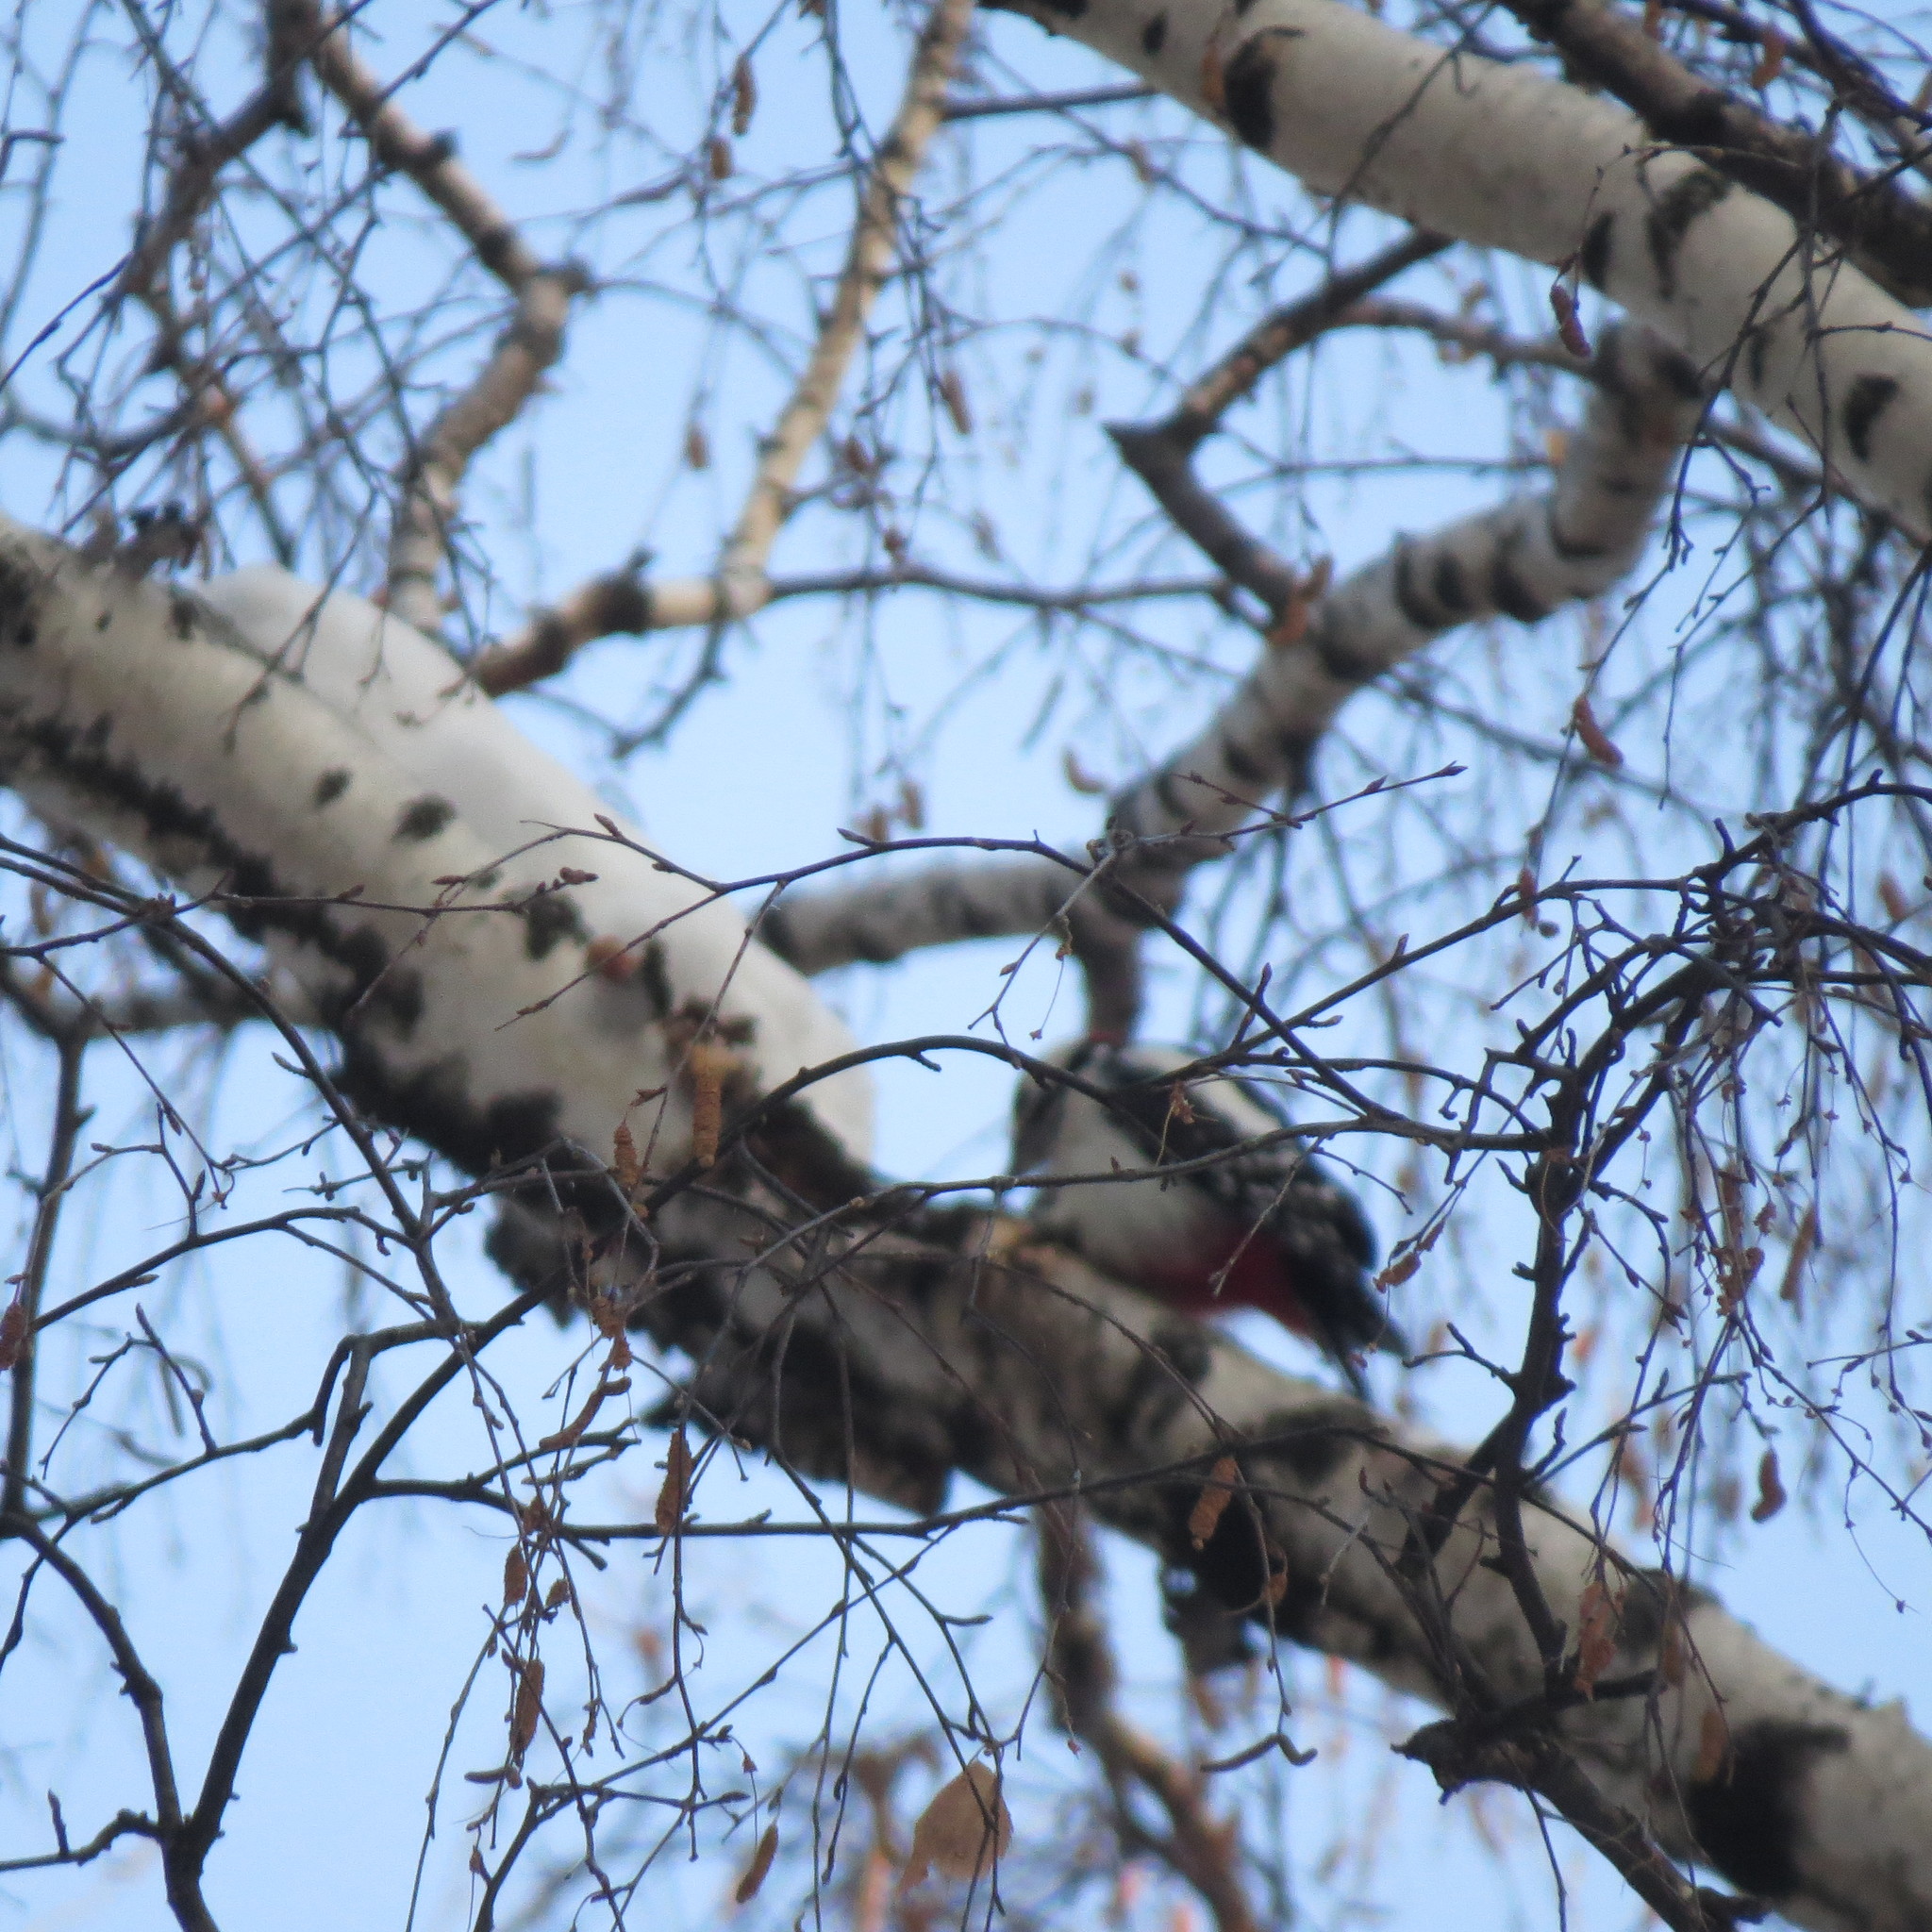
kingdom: Animalia
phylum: Chordata
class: Aves
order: Piciformes
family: Picidae
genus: Dendrocopos
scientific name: Dendrocopos major
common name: Great spotted woodpecker
